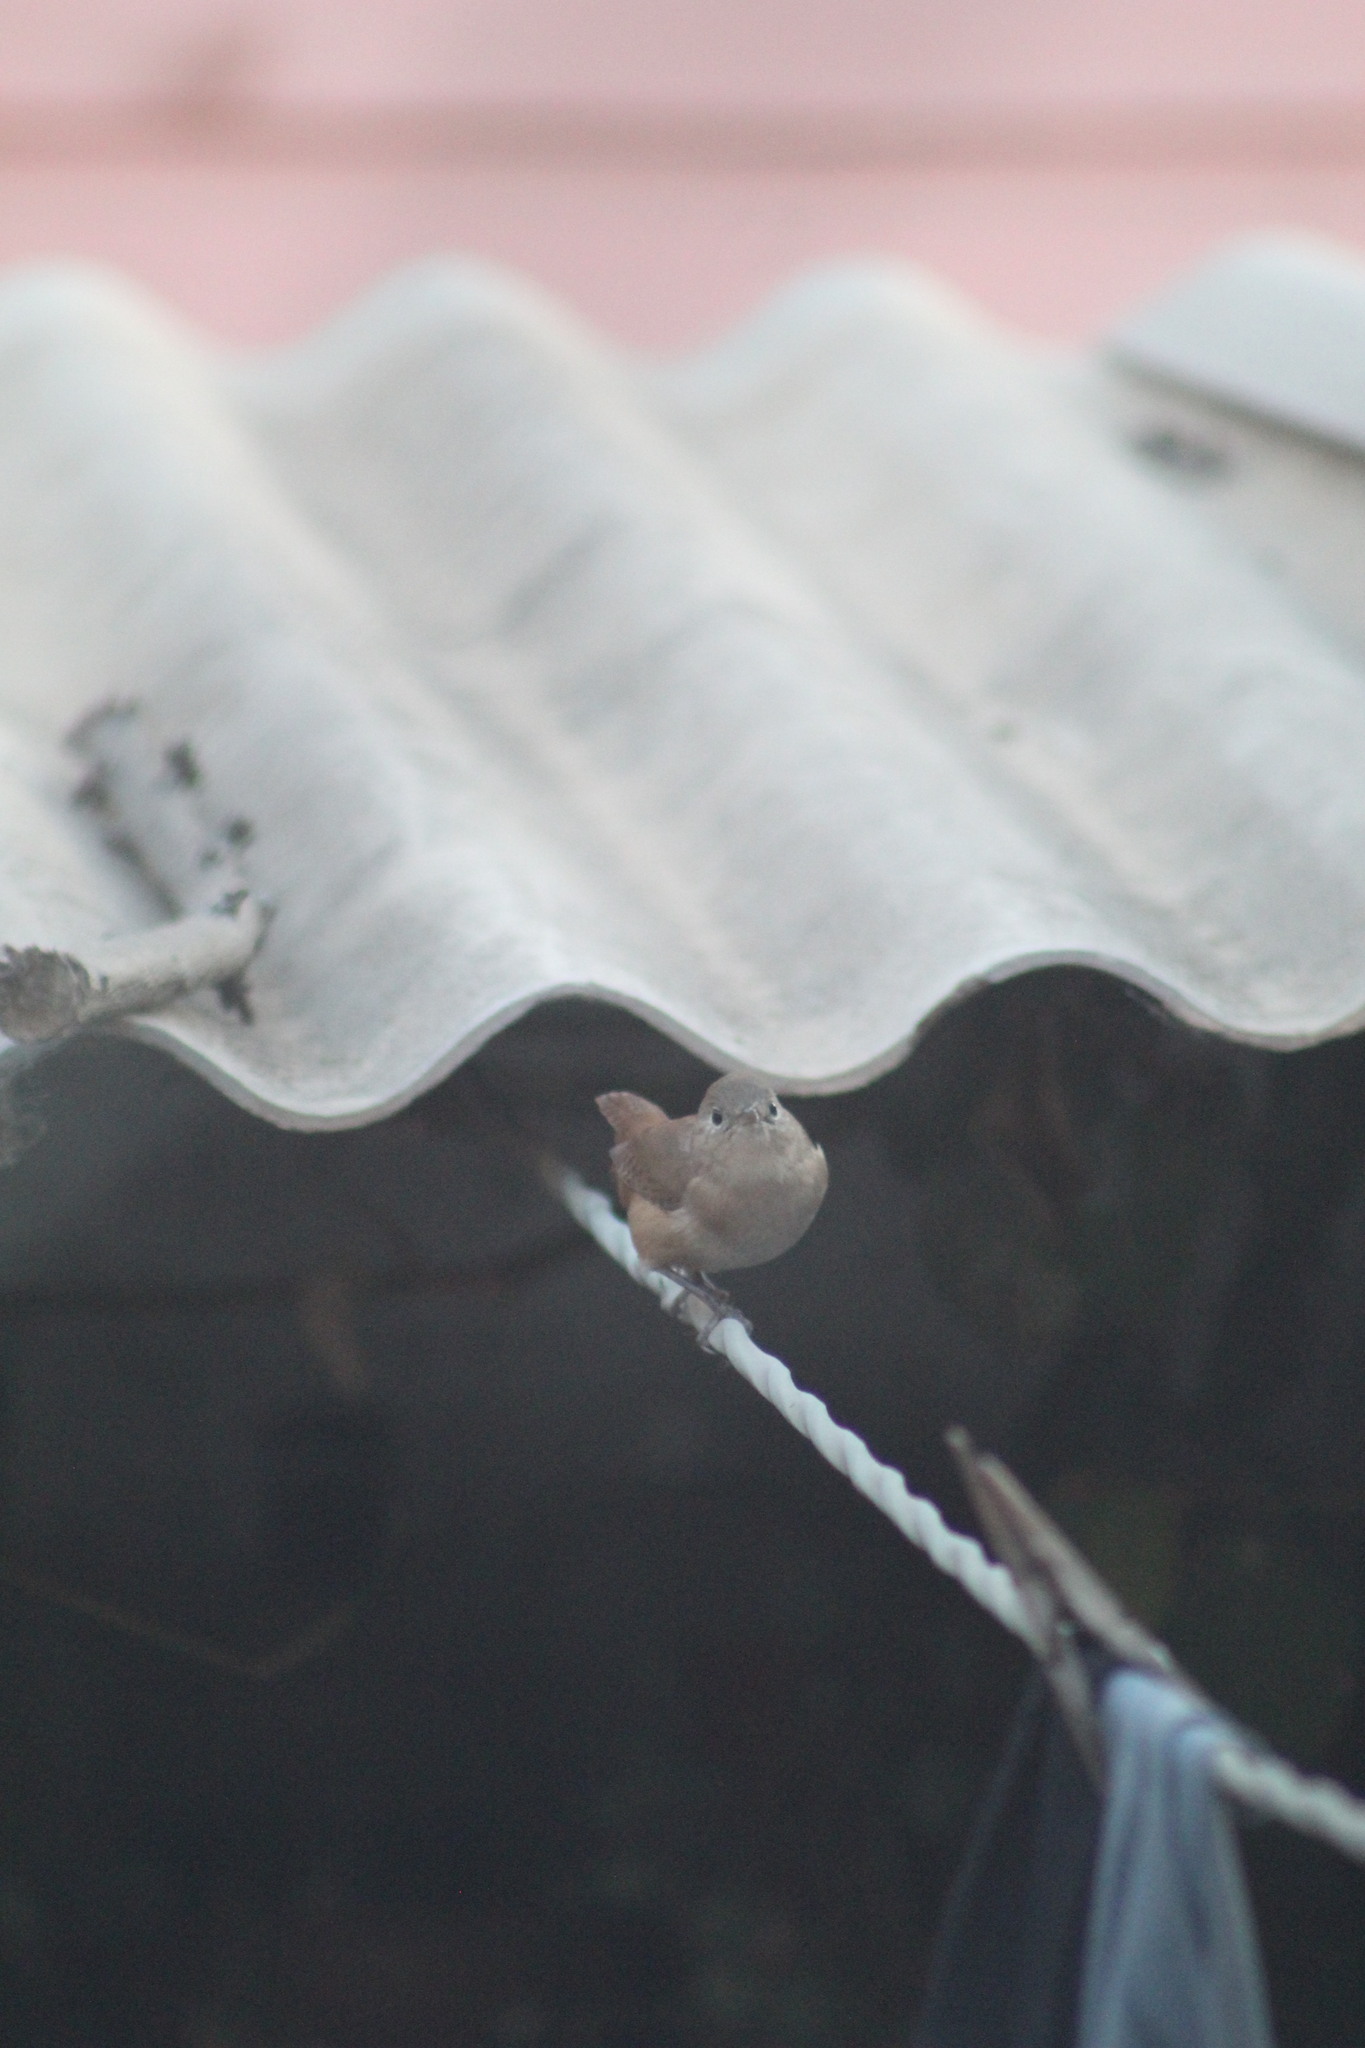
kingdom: Animalia
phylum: Chordata
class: Aves
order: Passeriformes
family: Troglodytidae
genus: Troglodytes
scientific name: Troglodytes aedon
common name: House wren
